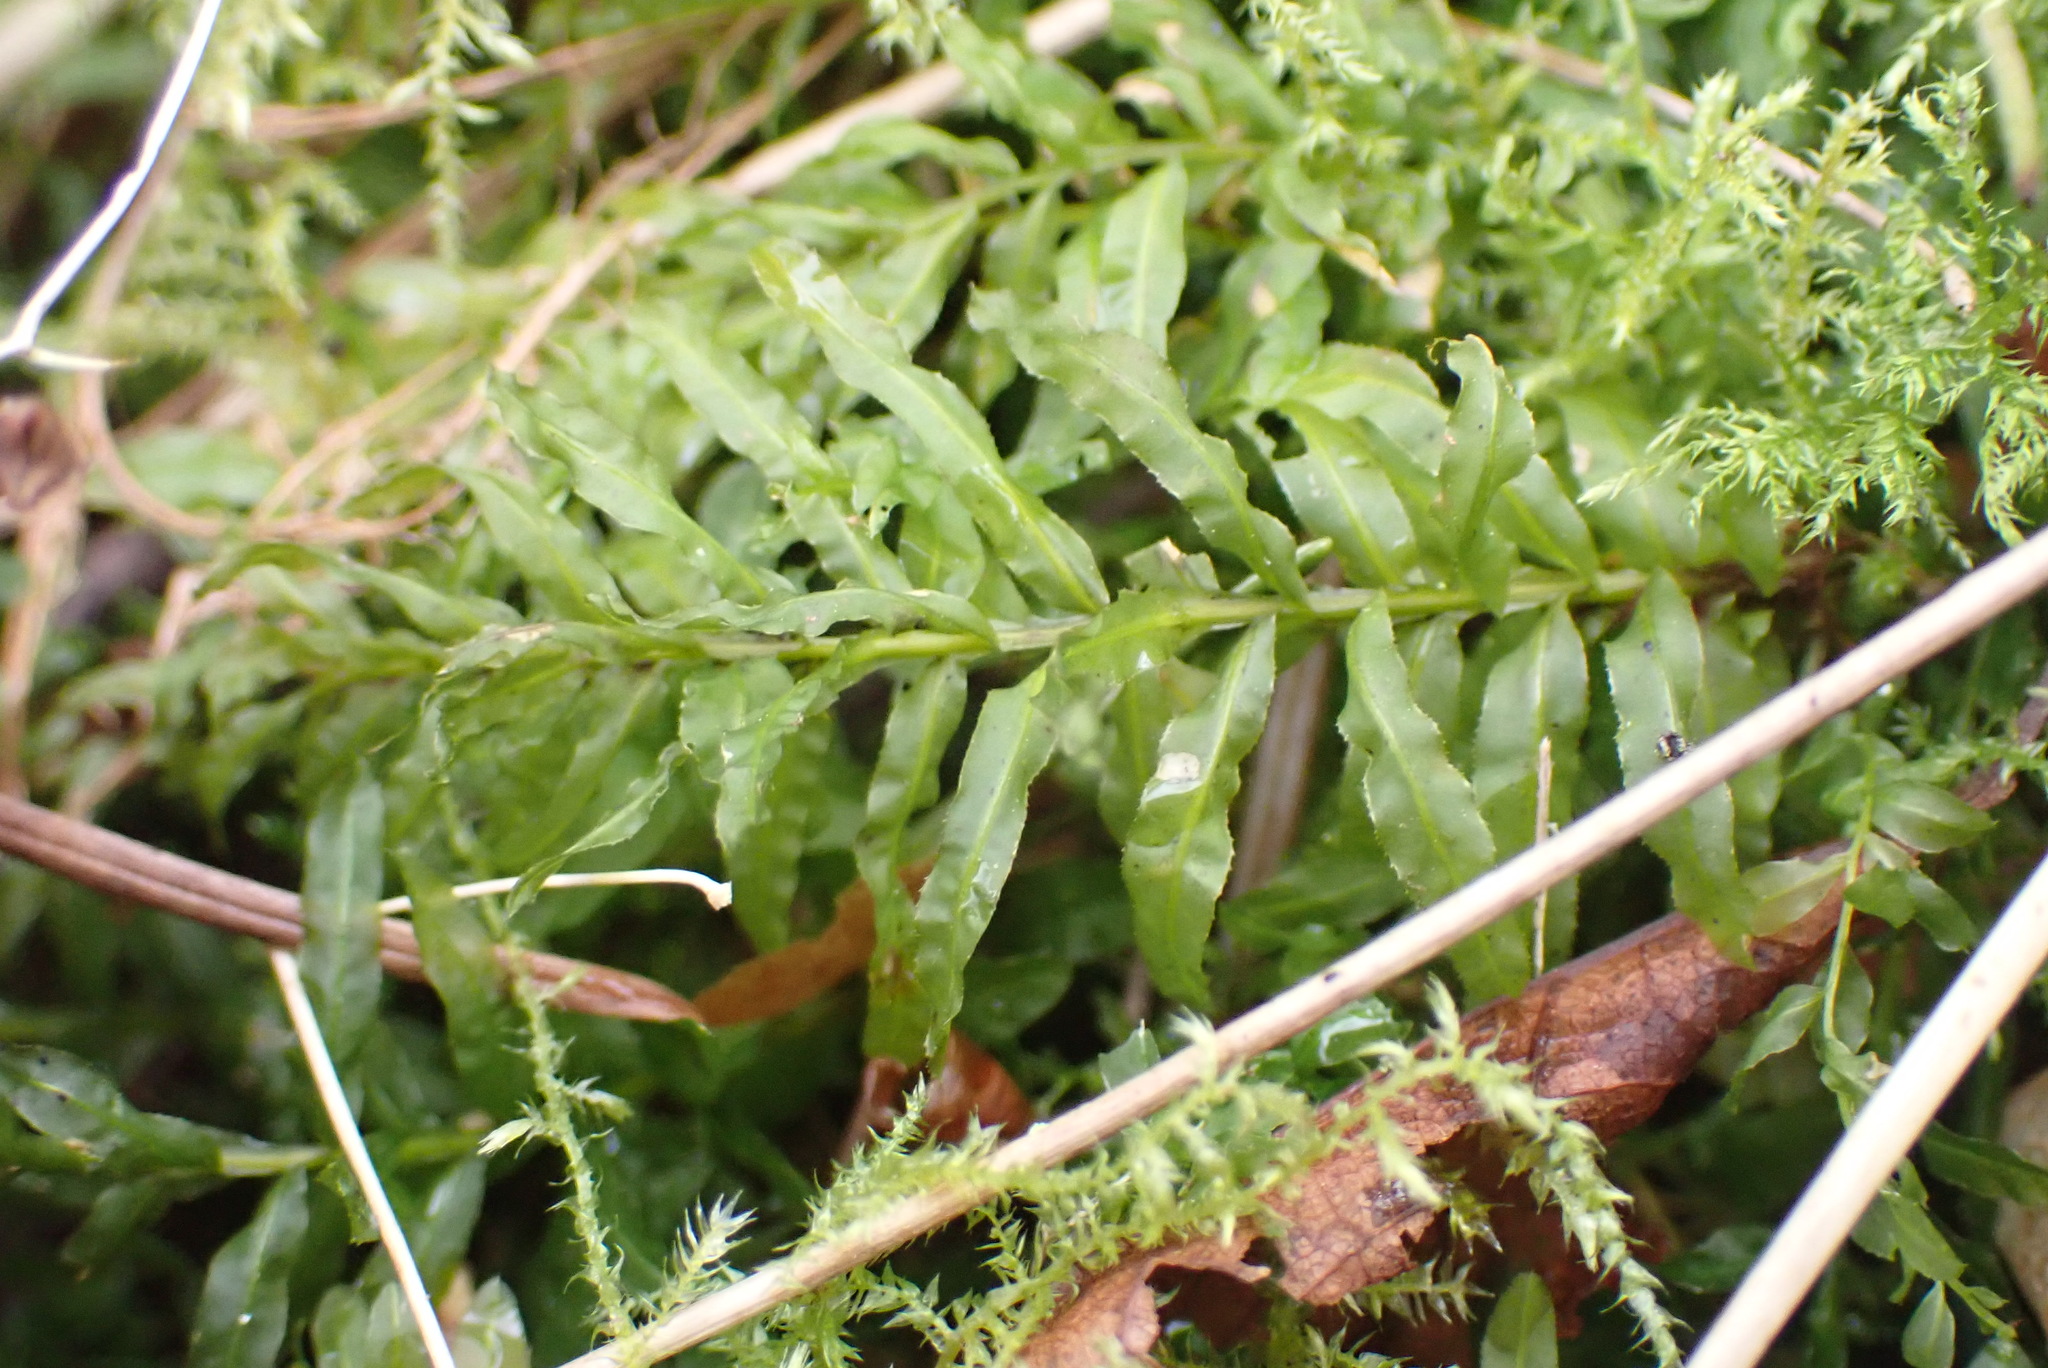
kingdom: Plantae
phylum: Bryophyta
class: Bryopsida
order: Bryales
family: Mniaceae
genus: Plagiomnium
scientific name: Plagiomnium undulatum
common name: Hart's-tongue thyme-moss
